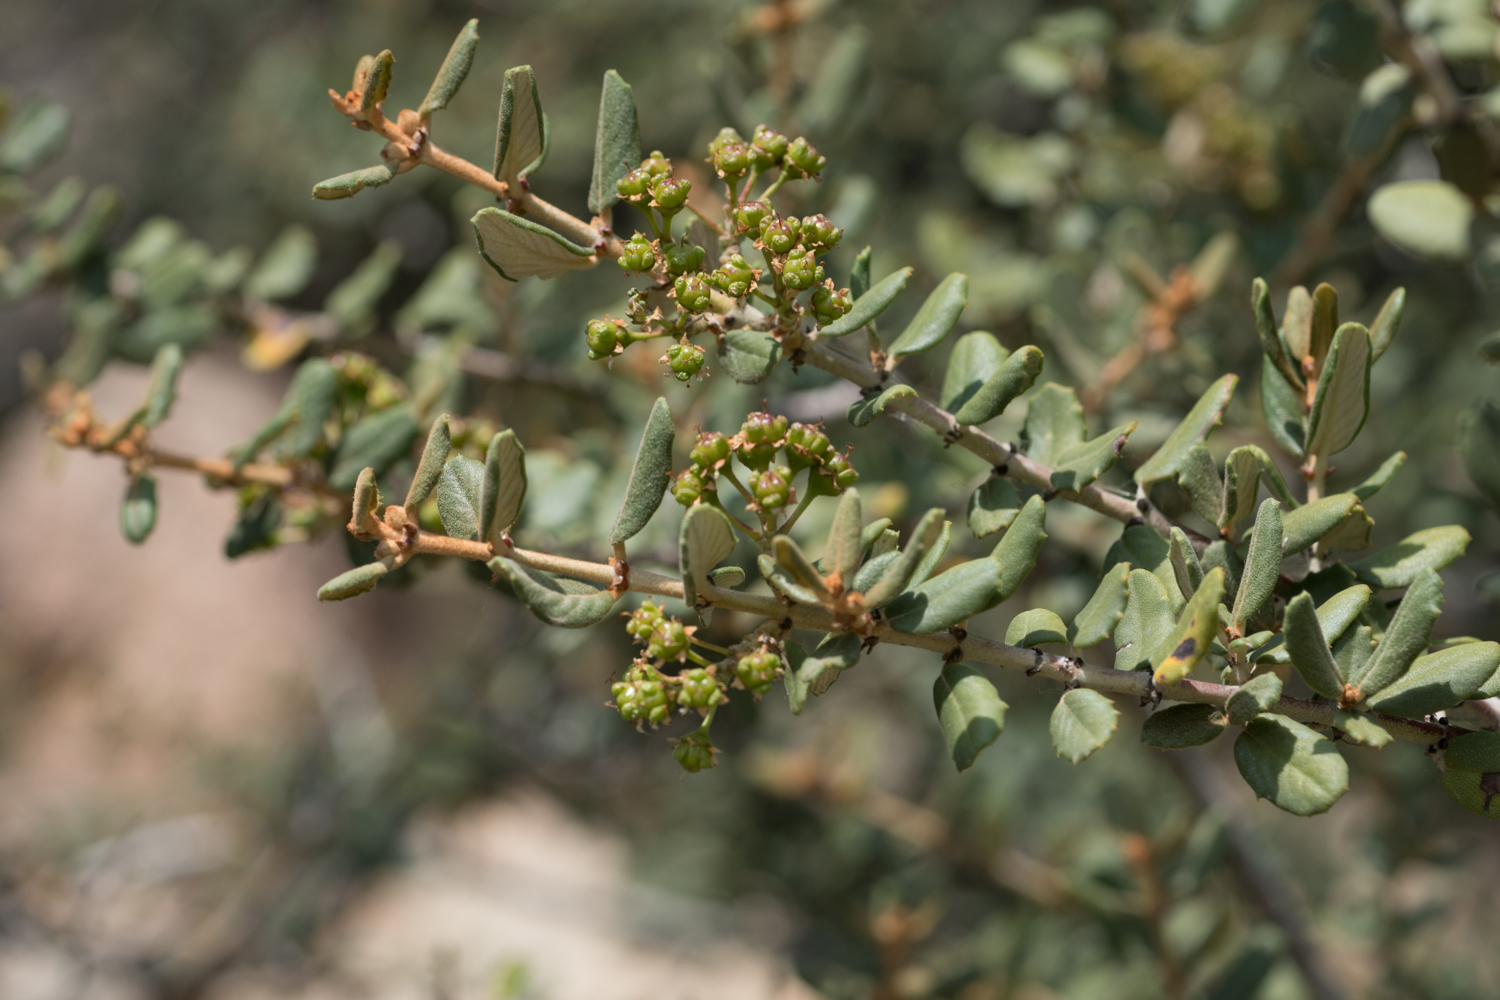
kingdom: Plantae
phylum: Tracheophyta
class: Magnoliopsida
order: Rosales
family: Rhamnaceae
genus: Ceanothus
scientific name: Ceanothus crassifolius
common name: Hoaryleaf ceanothus
